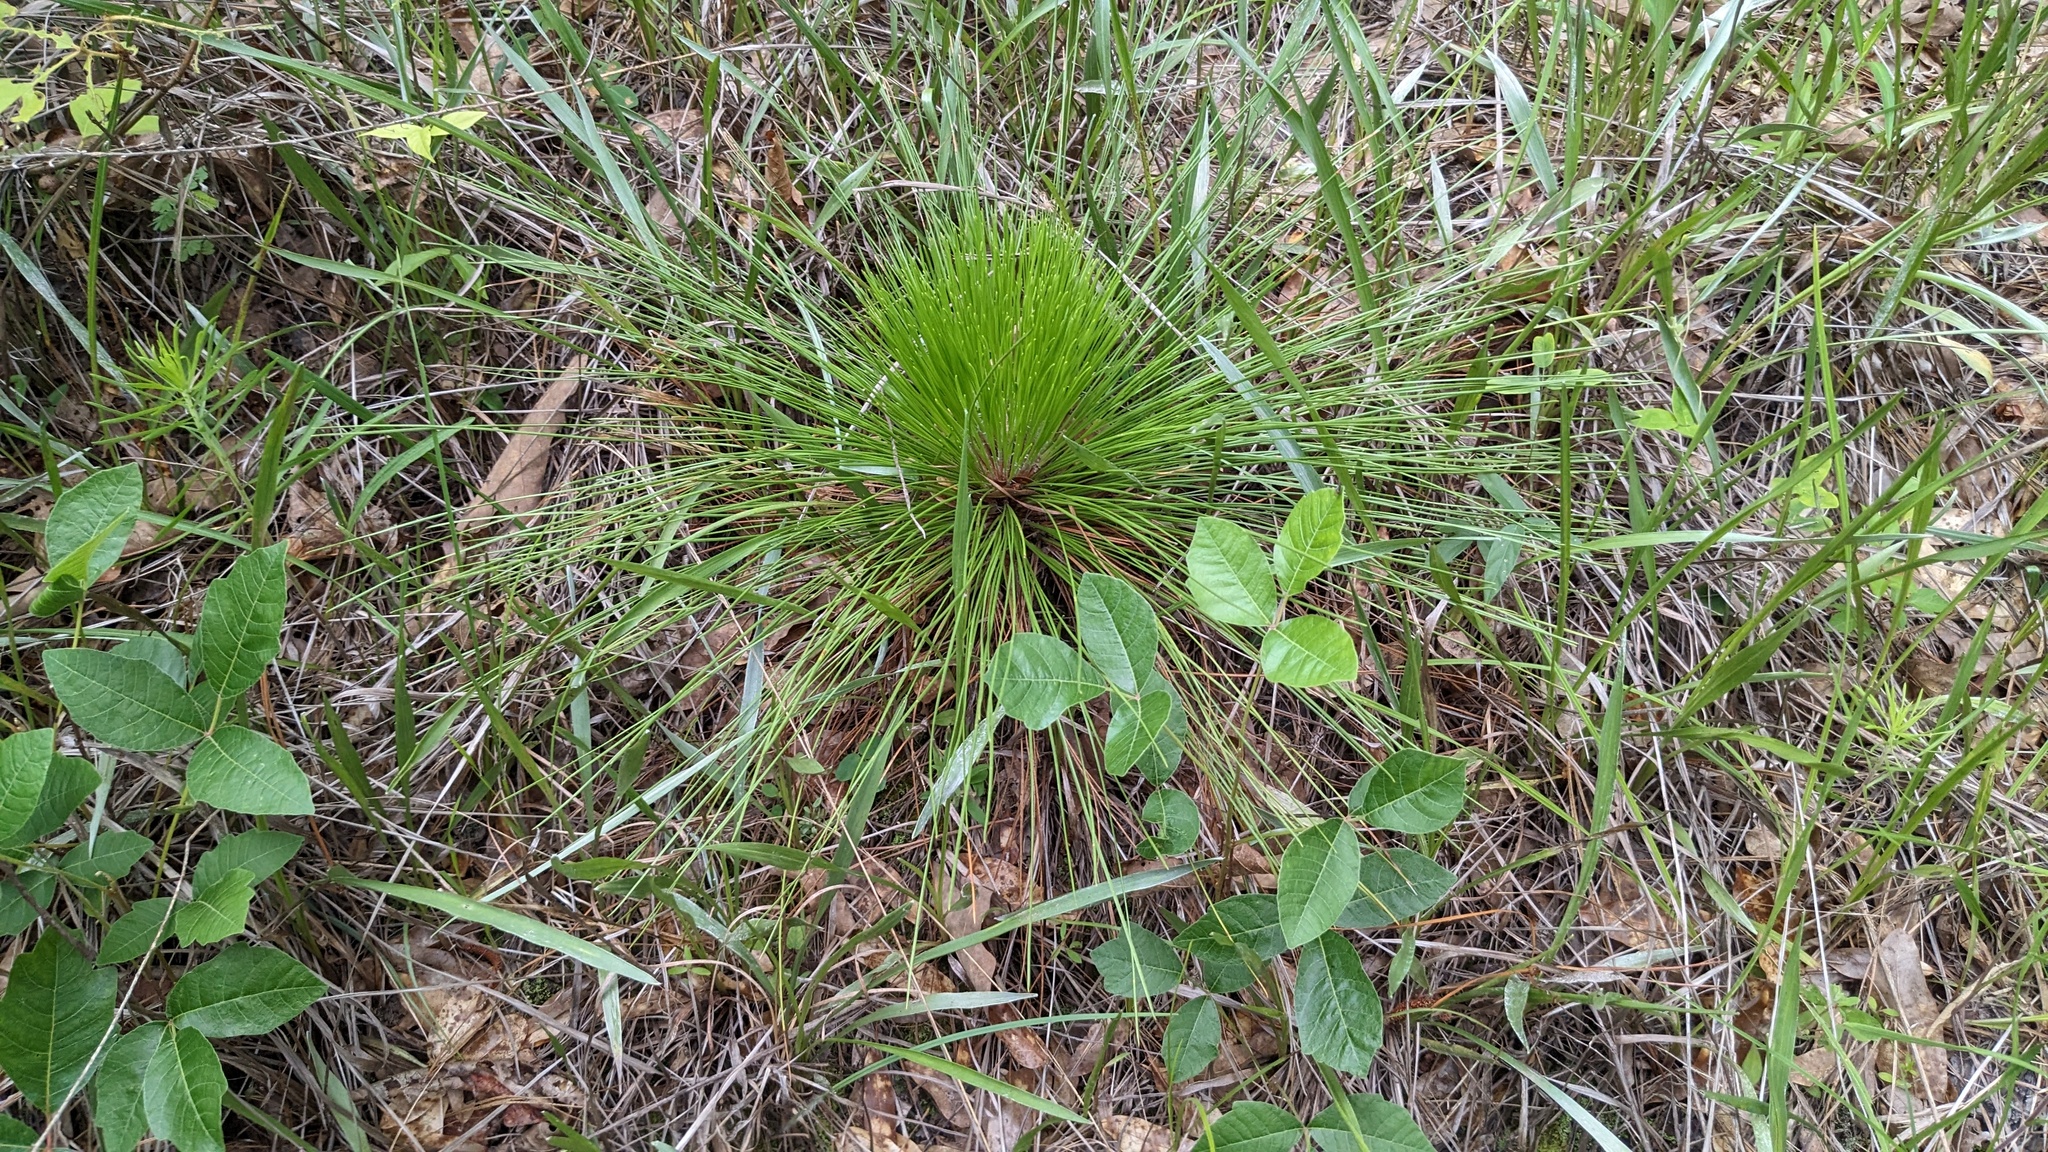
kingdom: Plantae
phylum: Tracheophyta
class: Pinopsida
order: Pinales
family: Pinaceae
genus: Pinus
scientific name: Pinus palustris
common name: Longleaf pine
